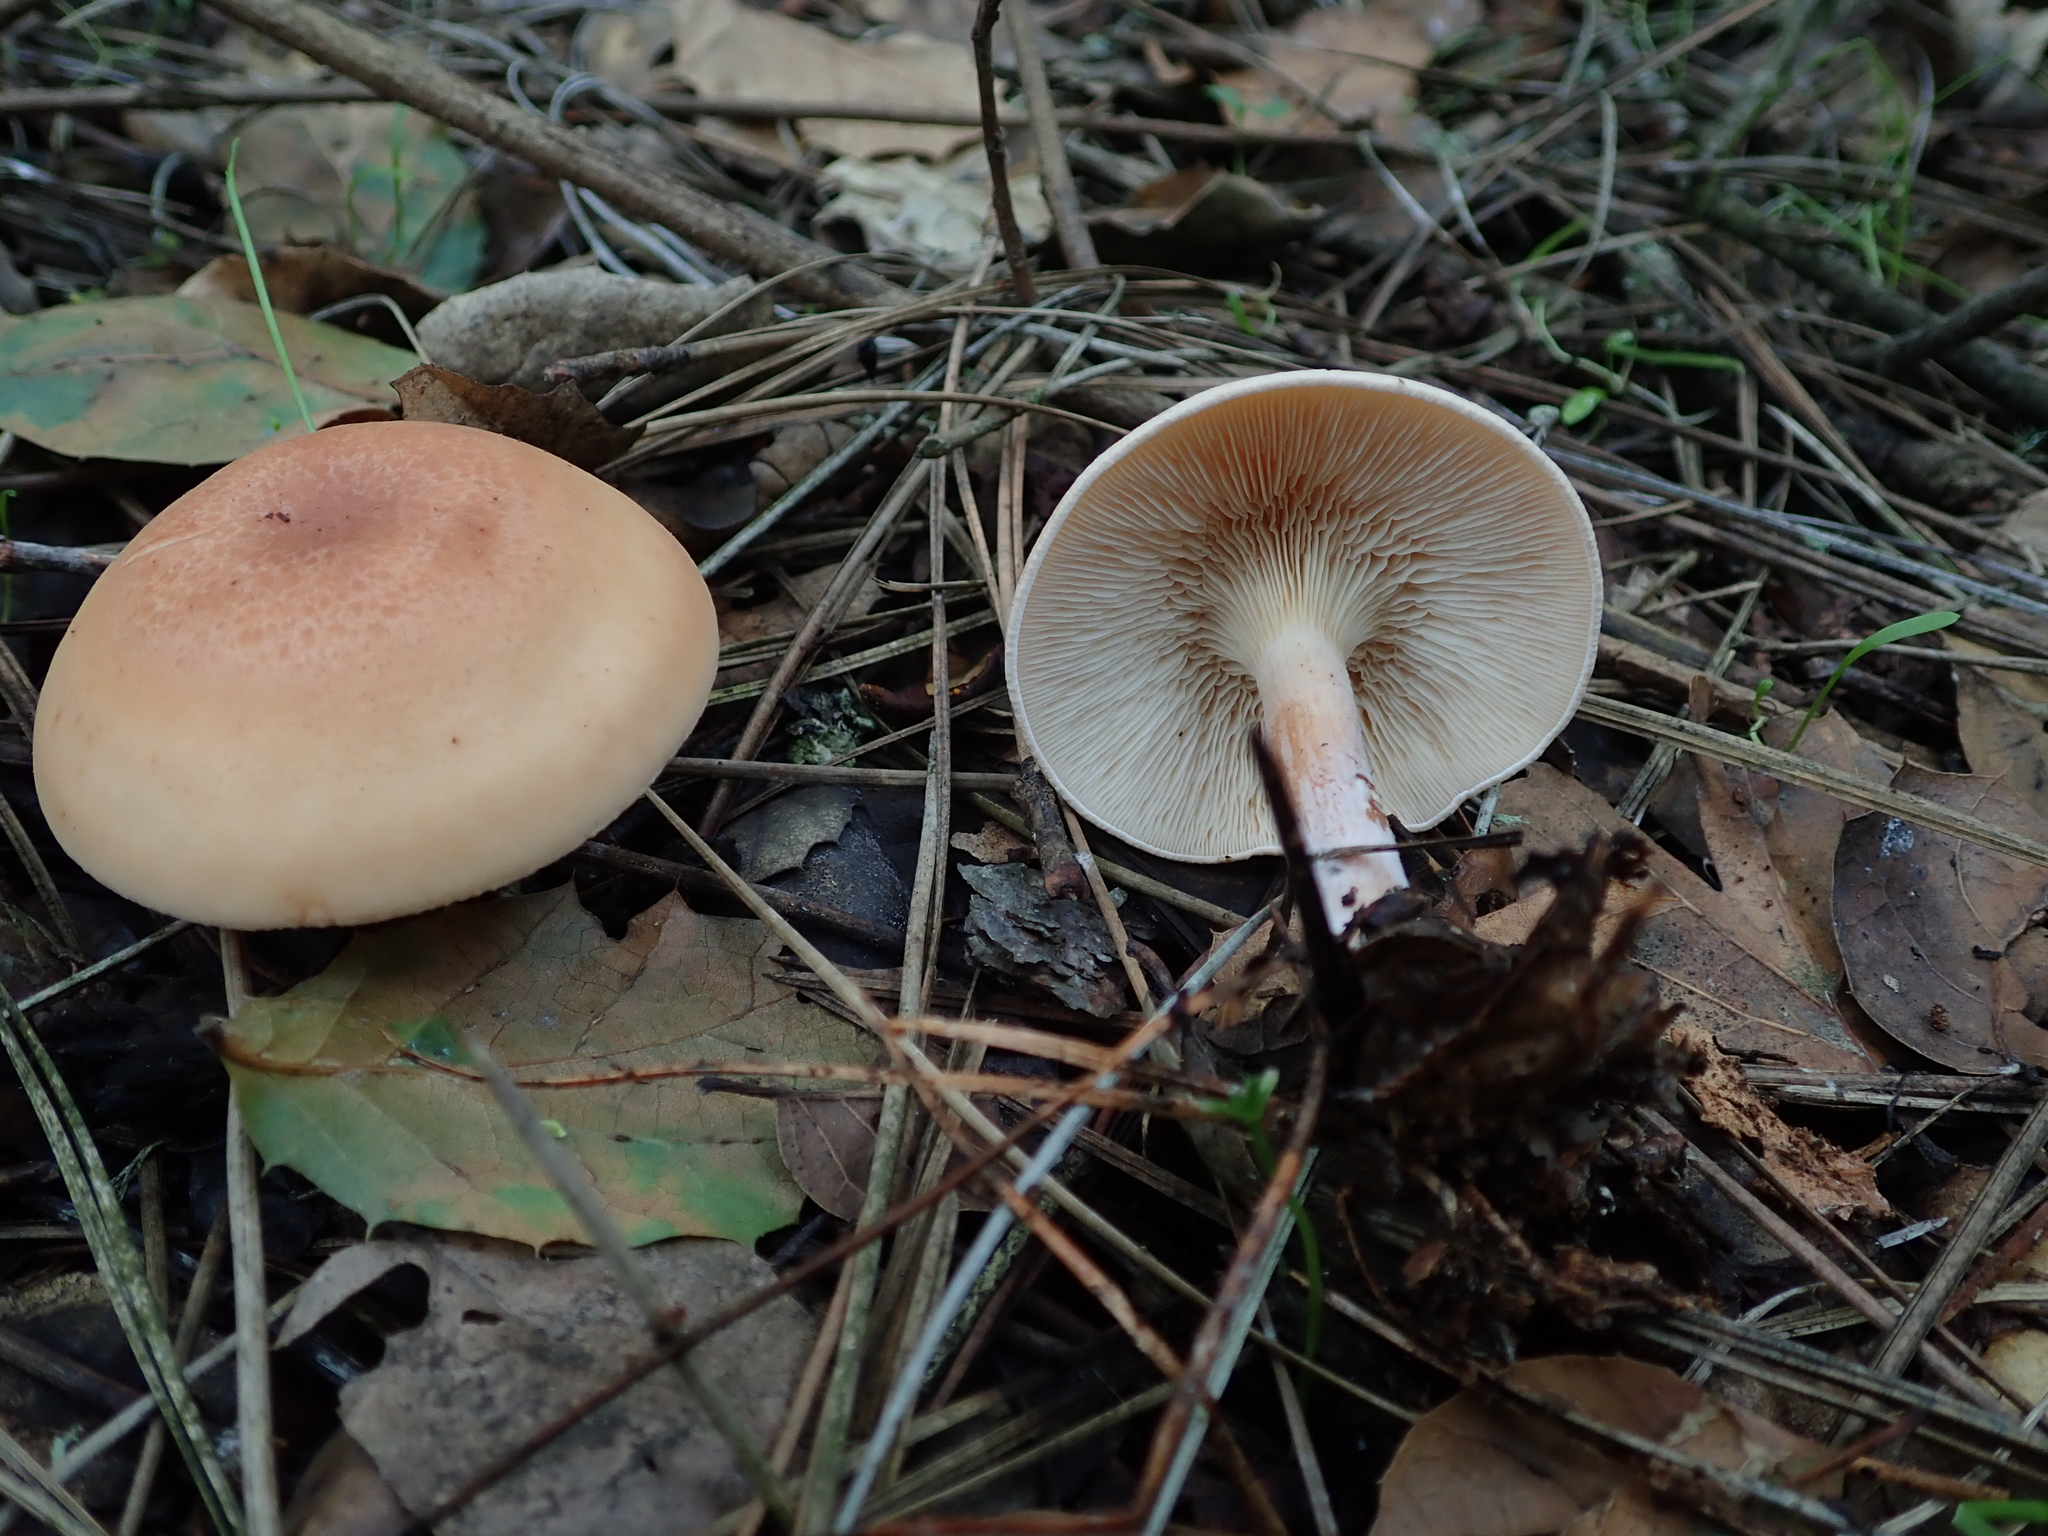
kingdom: Fungi
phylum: Basidiomycota
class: Agaricomycetes
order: Agaricales
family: Tricholomataceae
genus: Paralepista
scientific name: Paralepista flaccida
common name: Tawny funnel cap
